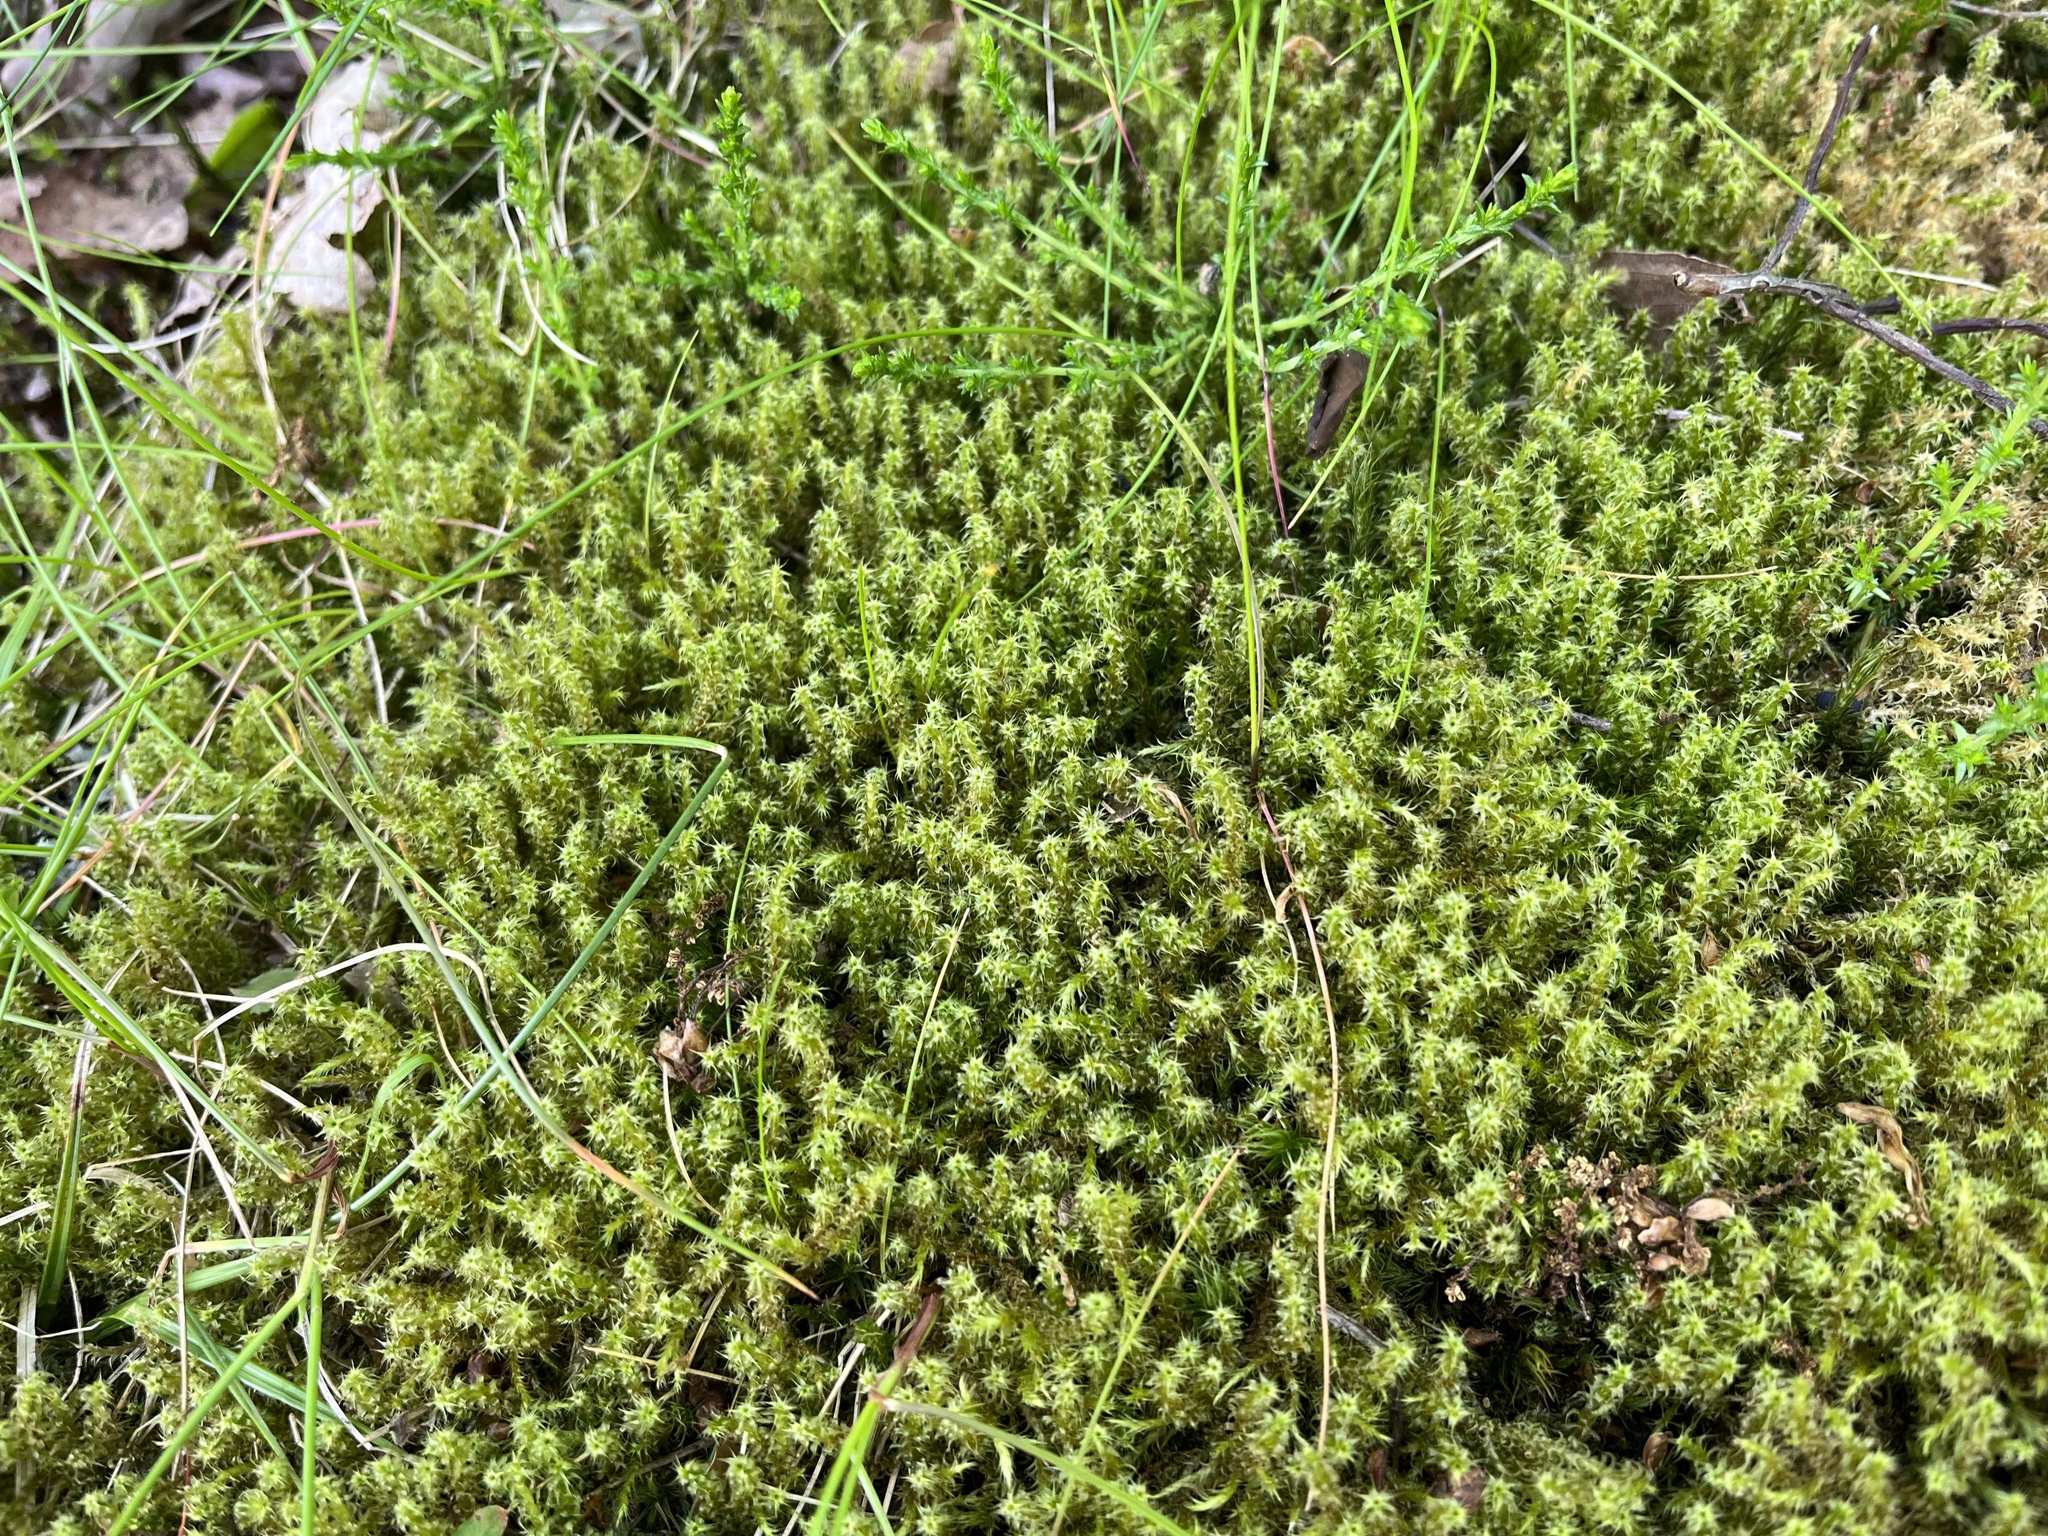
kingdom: Plantae
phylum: Bryophyta
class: Bryopsida
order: Hypnales
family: Hylocomiaceae
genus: Rhytidiadelphus
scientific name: Rhytidiadelphus squarrosus
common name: Springy turf-moss
